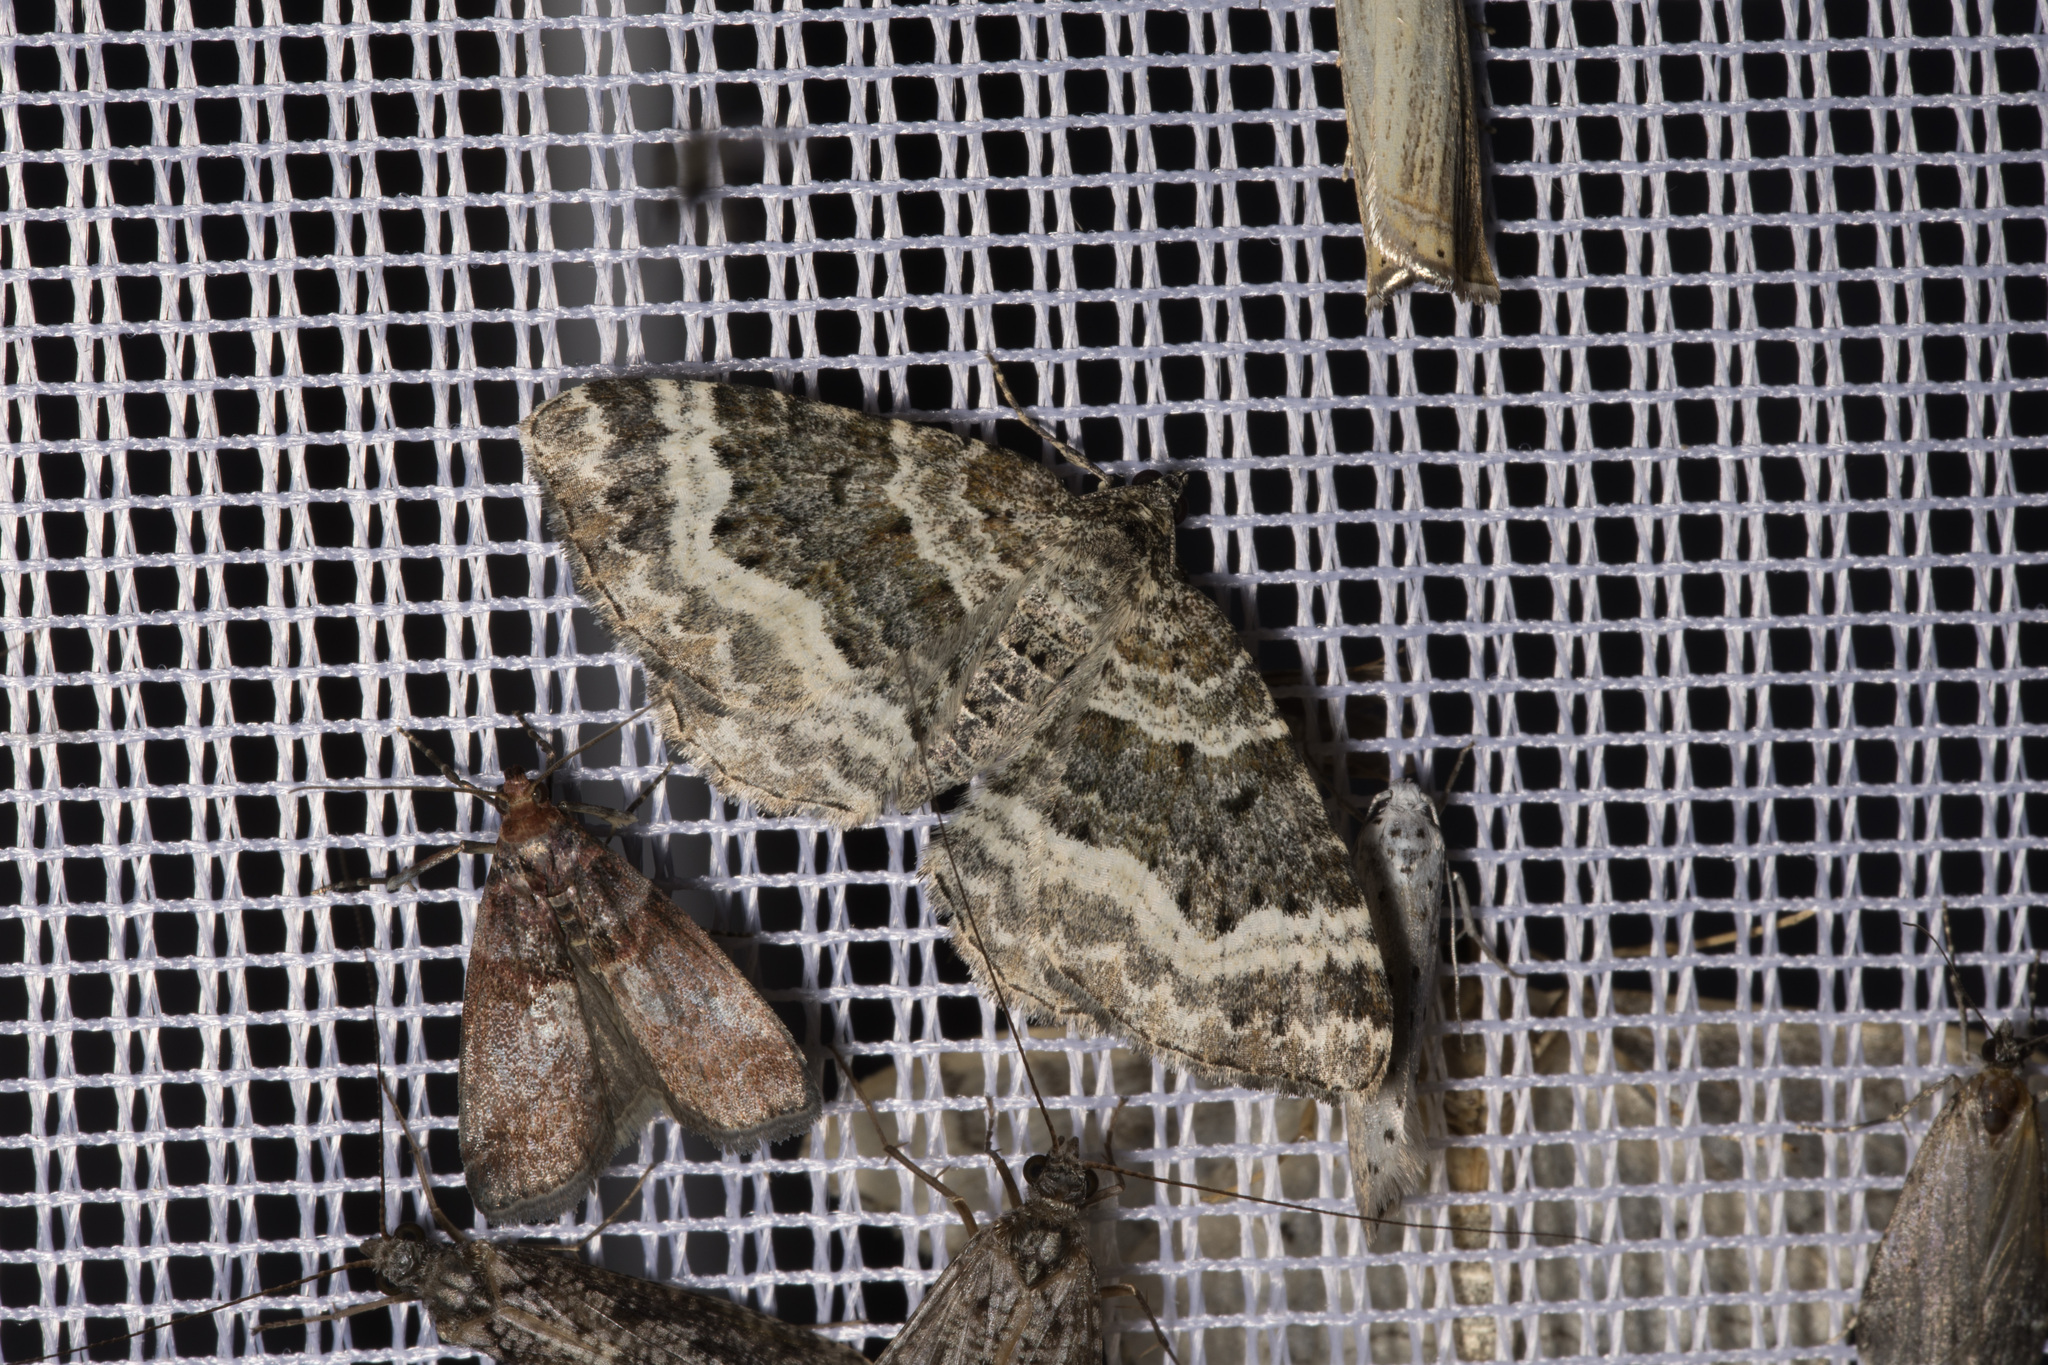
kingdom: Animalia
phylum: Arthropoda
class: Insecta
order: Lepidoptera
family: Pyralidae
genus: Acrobasis
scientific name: Acrobasis advenella
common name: Grey knot-horn
